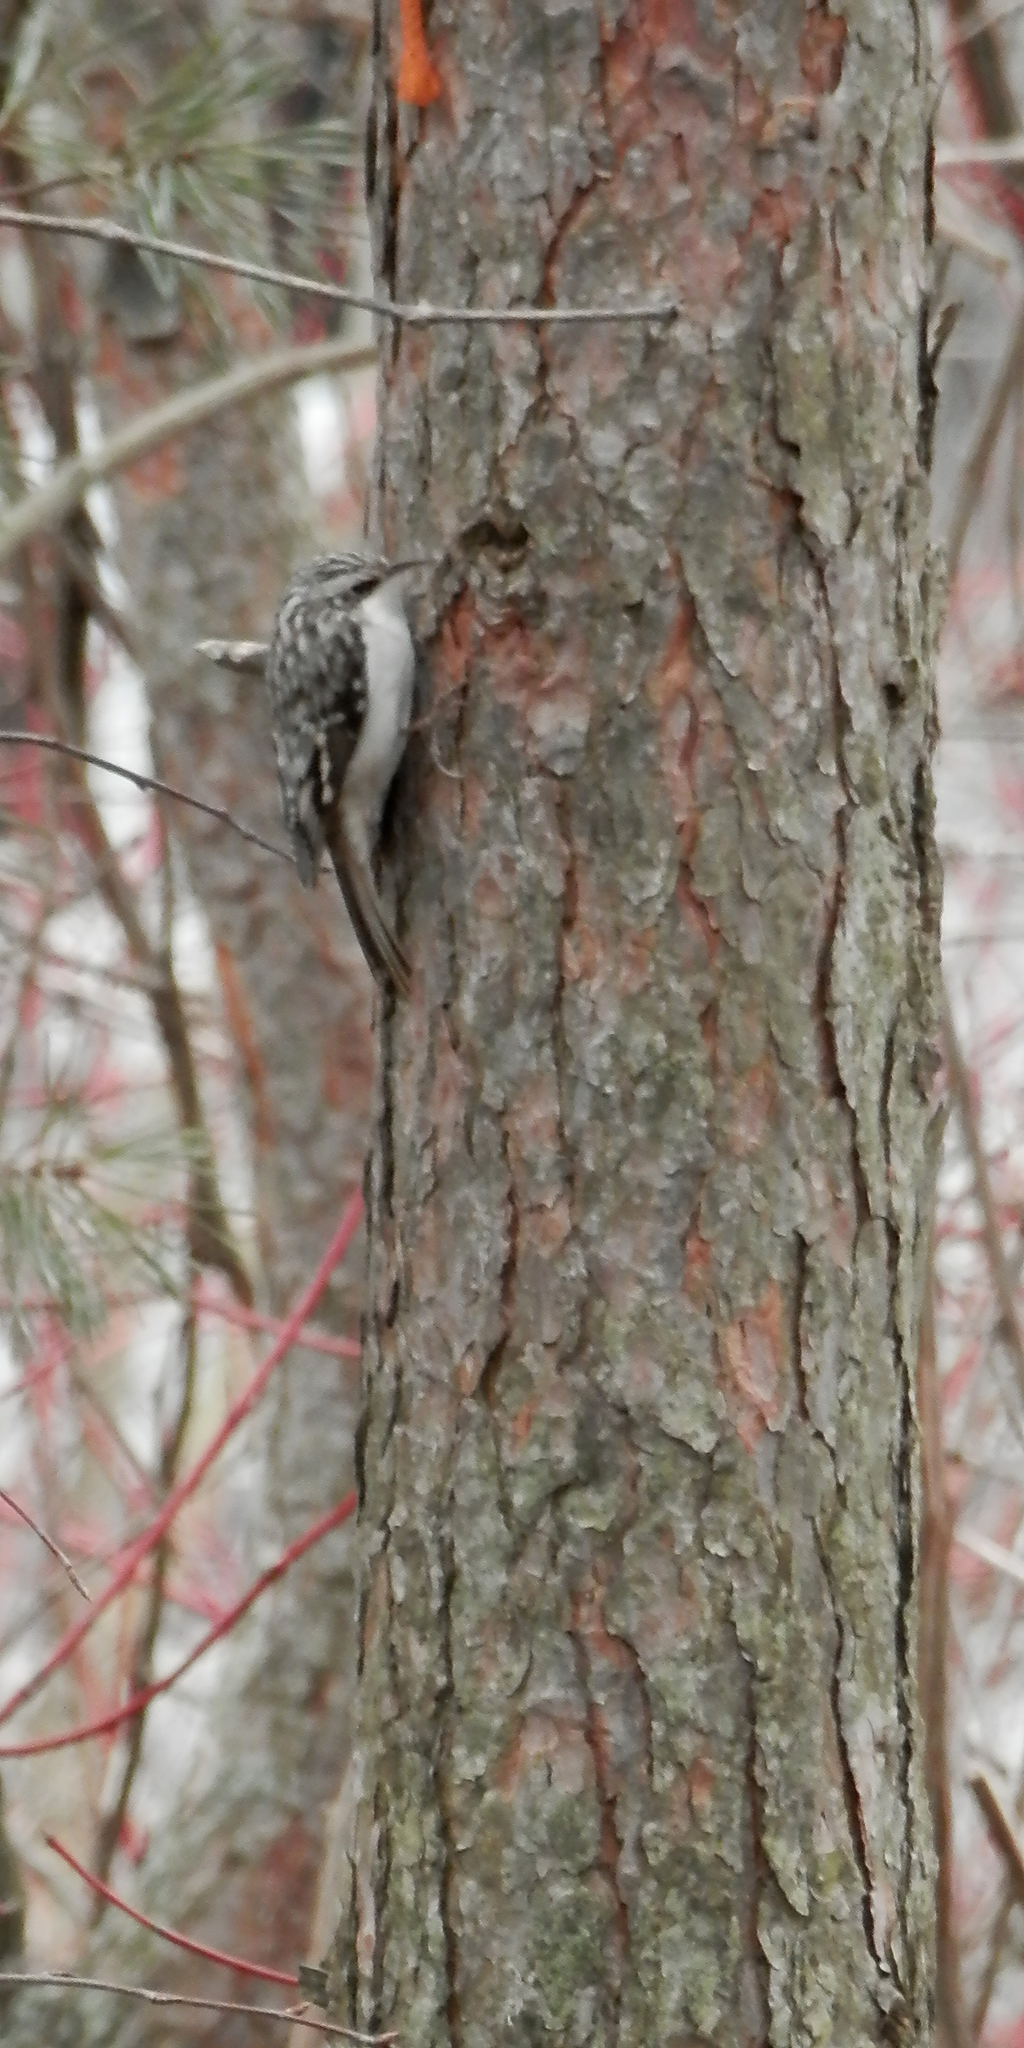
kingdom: Animalia
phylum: Chordata
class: Aves
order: Passeriformes
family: Certhiidae
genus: Certhia
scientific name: Certhia americana
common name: Brown creeper
